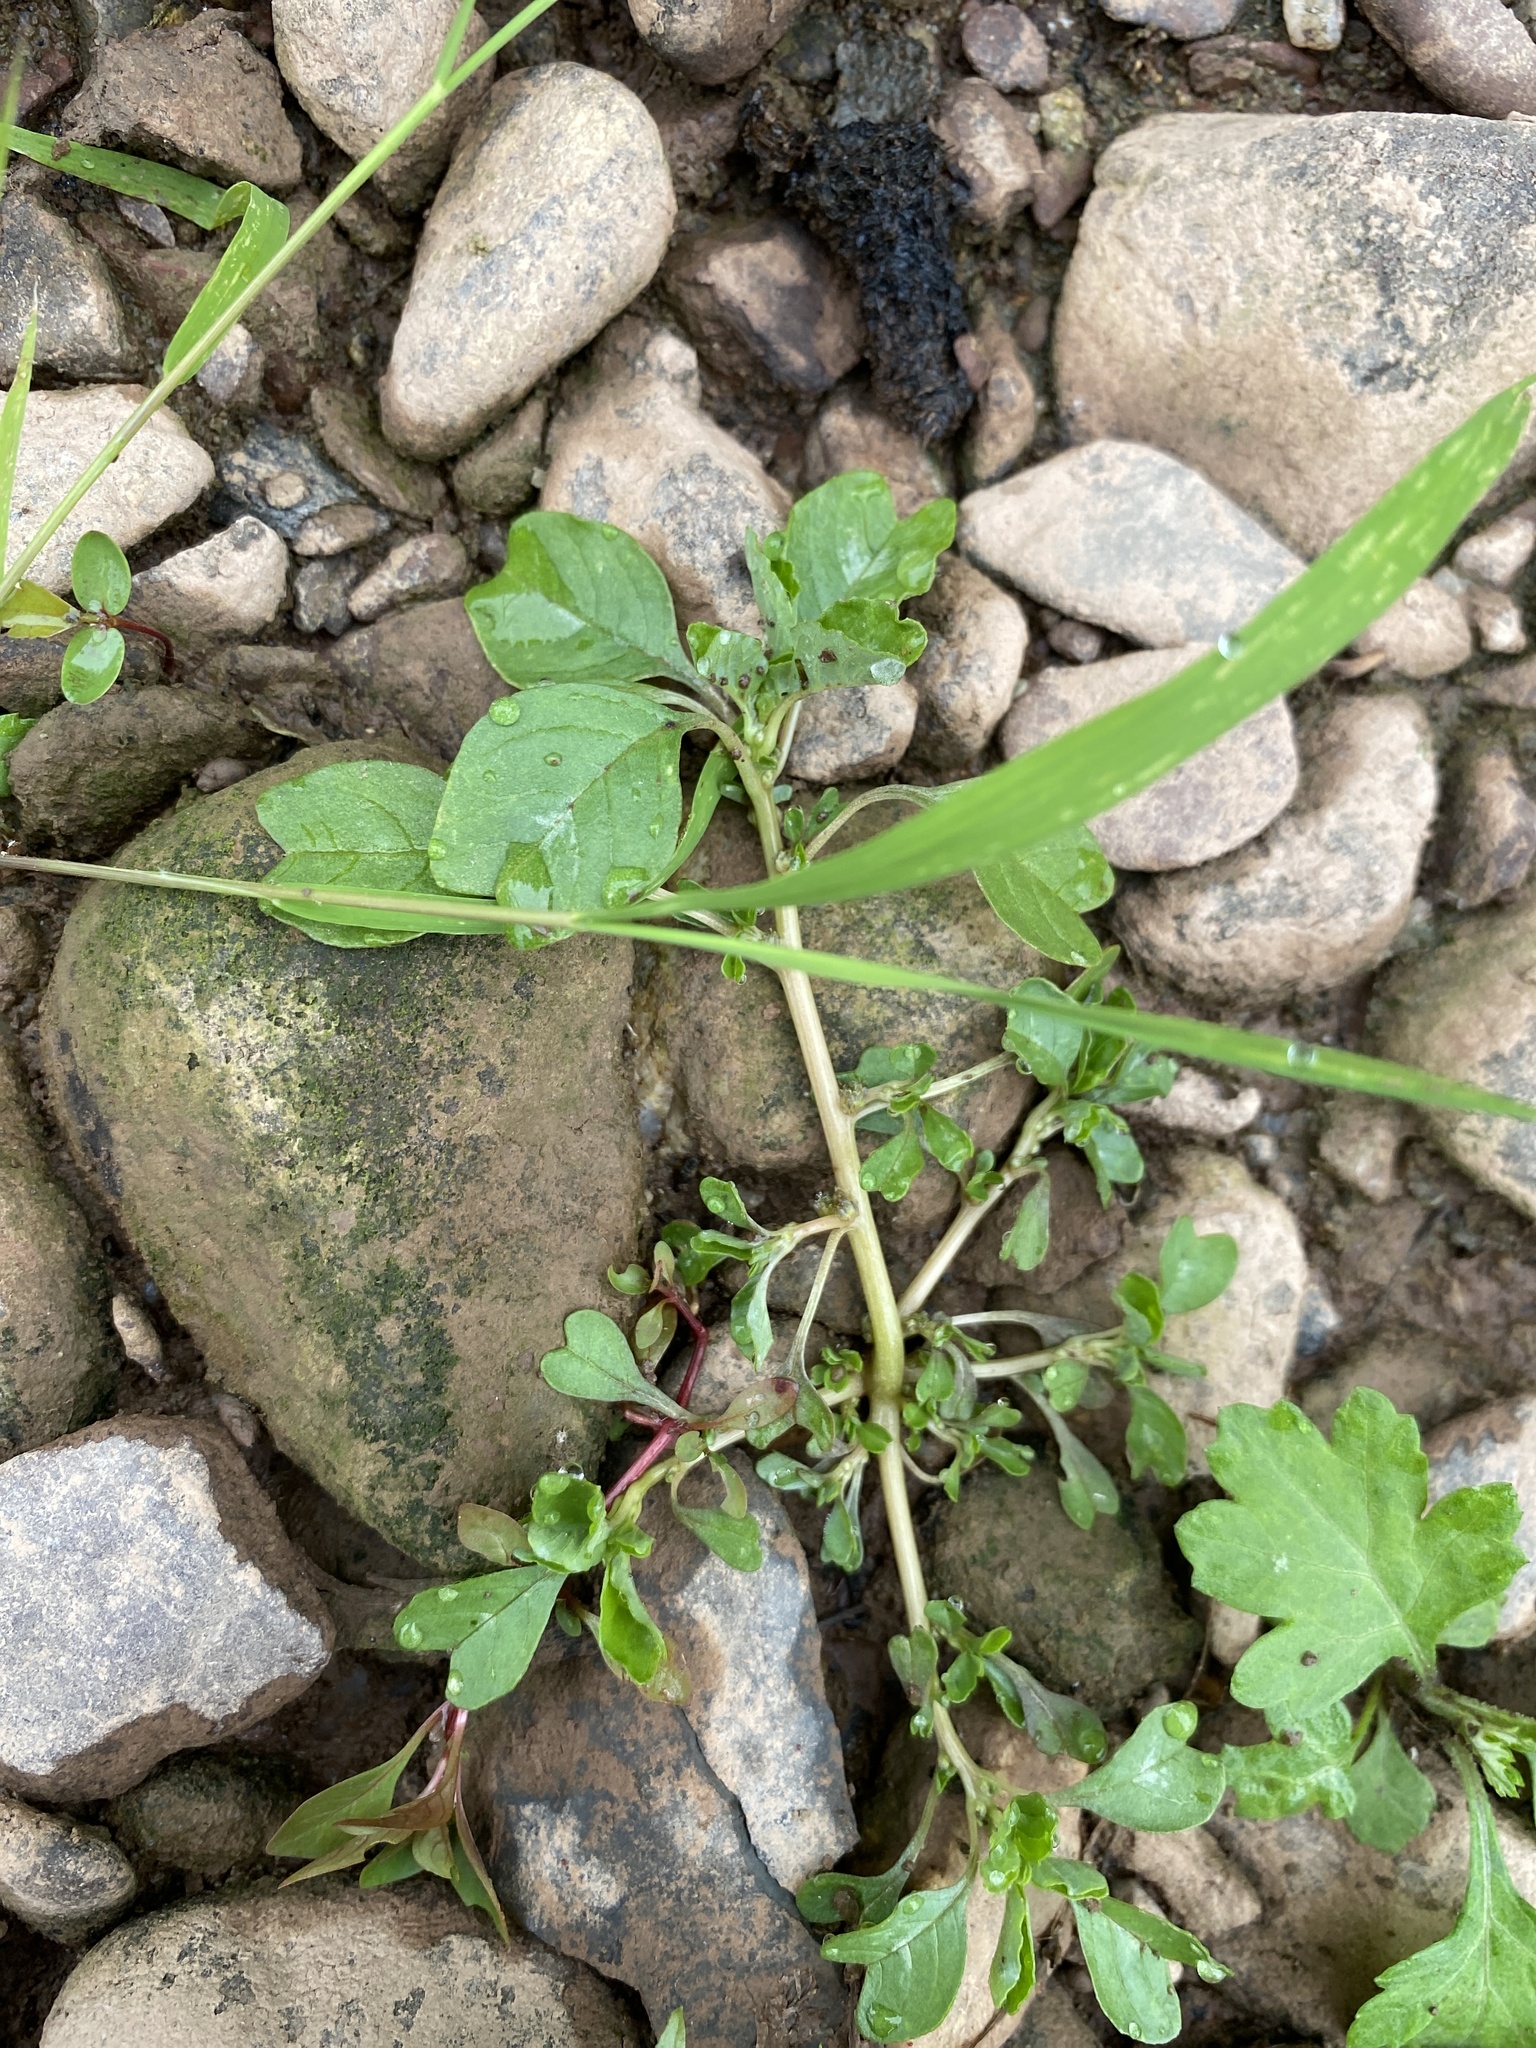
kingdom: Plantae
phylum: Tracheophyta
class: Magnoliopsida
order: Caryophyllales
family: Amaranthaceae
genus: Amaranthus
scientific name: Amaranthus blitum
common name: Purple amaranth
